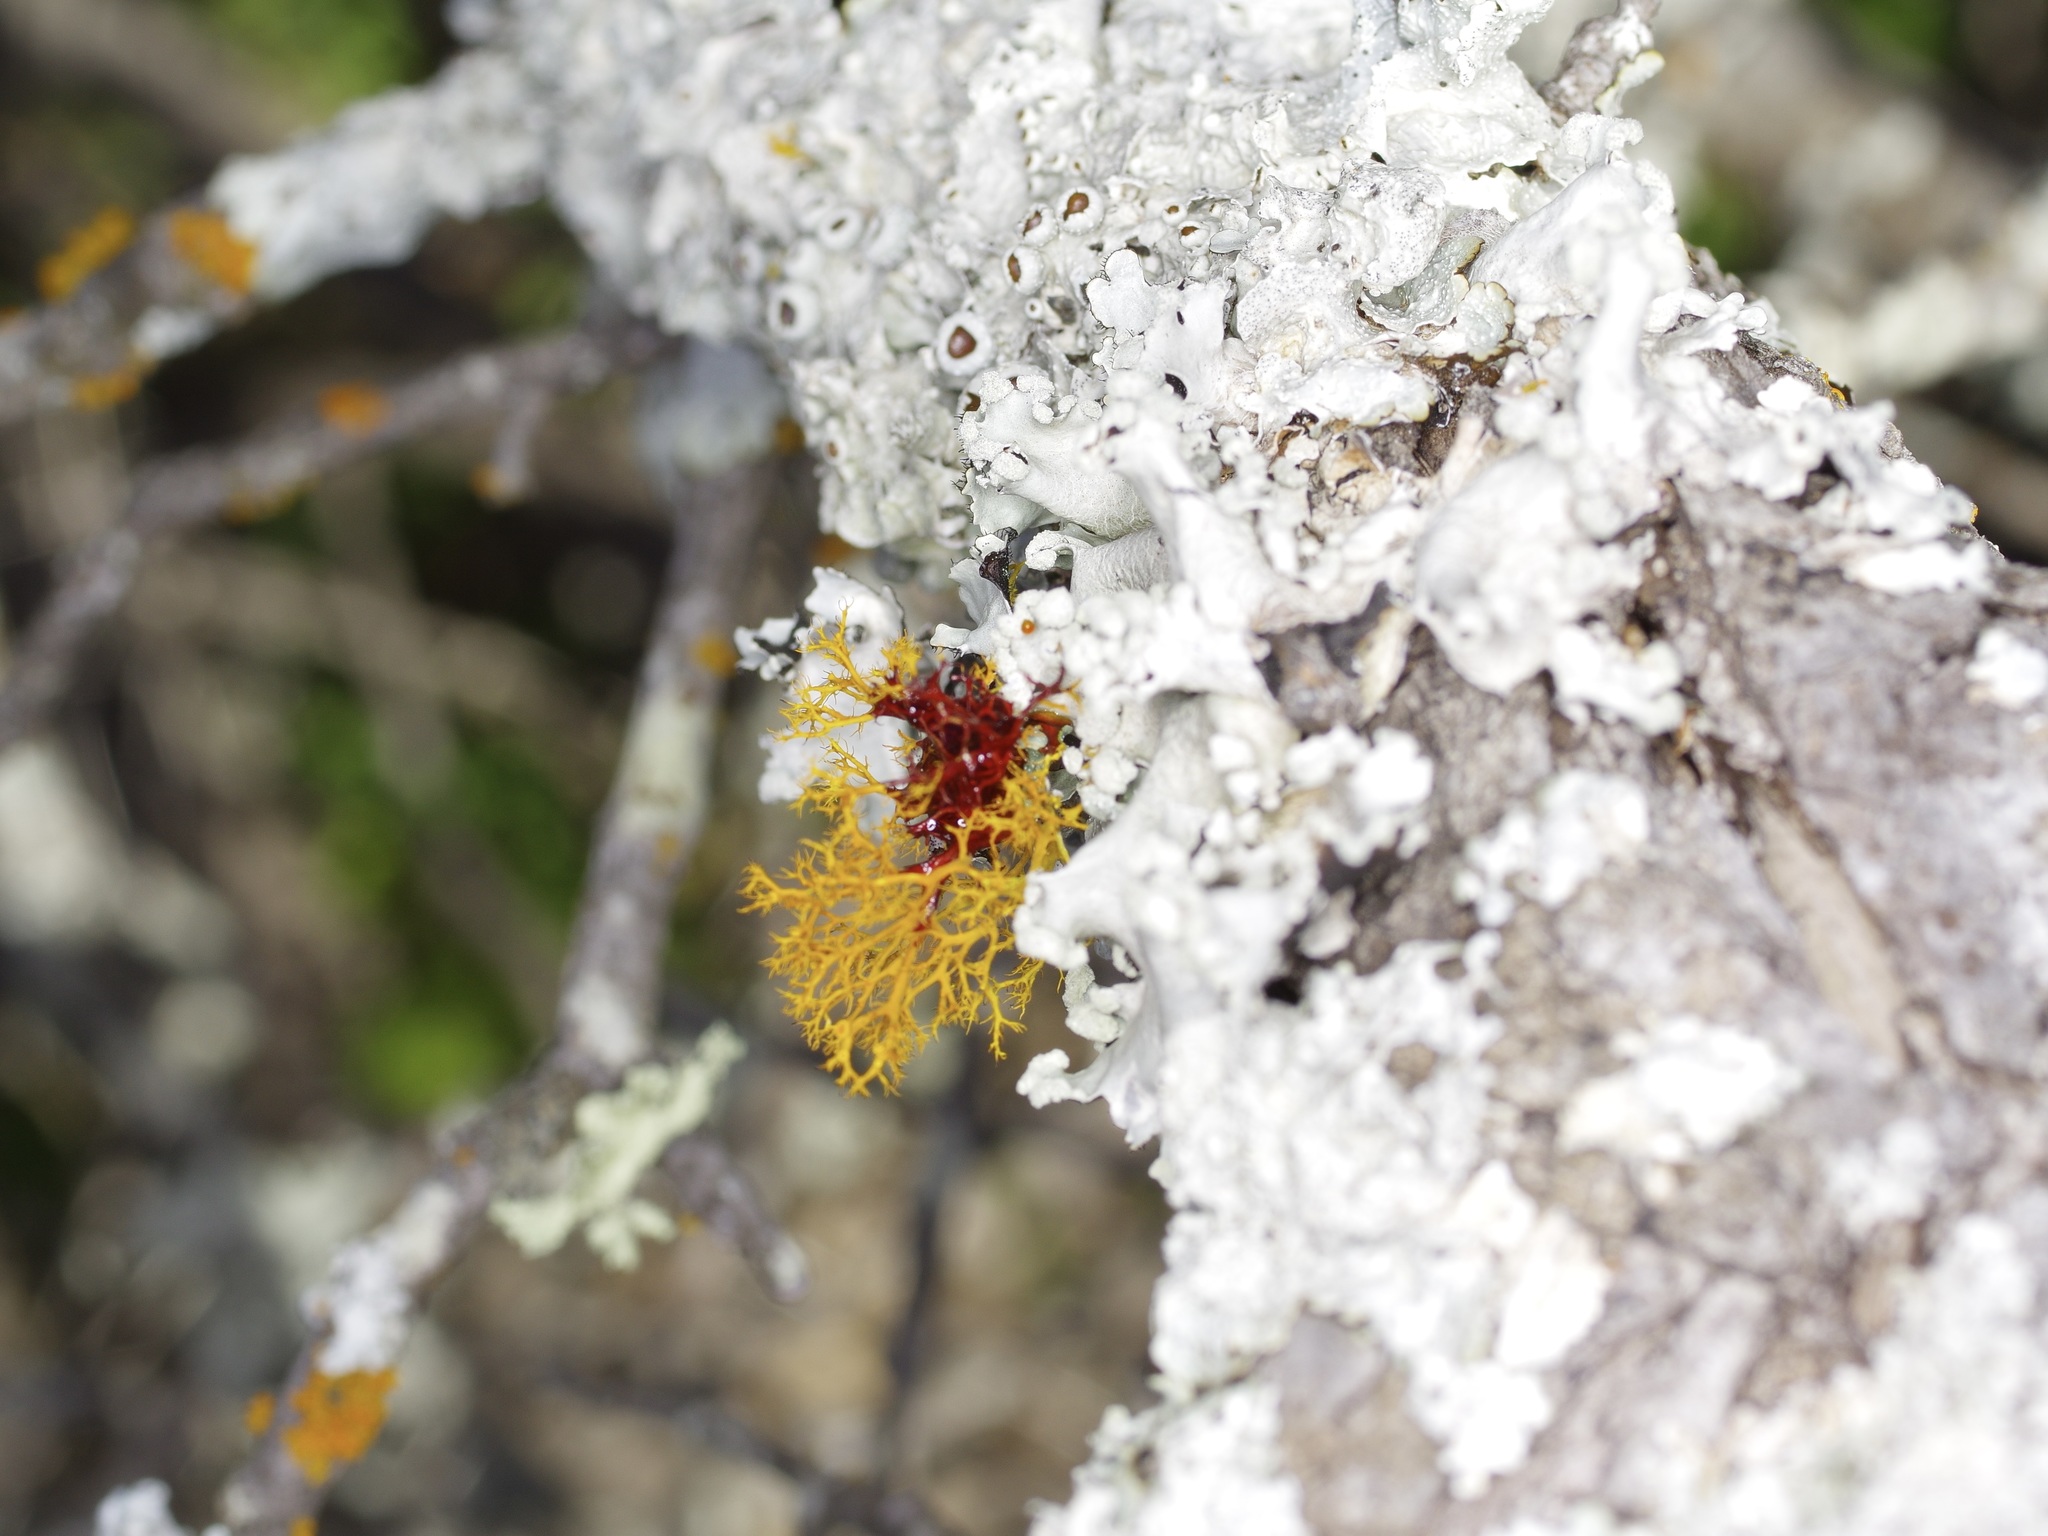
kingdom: Fungi
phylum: Ascomycota
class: Lecanoromycetes
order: Teloschistales
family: Teloschistaceae
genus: Teloschistes
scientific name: Teloschistes flavicans
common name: Golden hair-lichen
